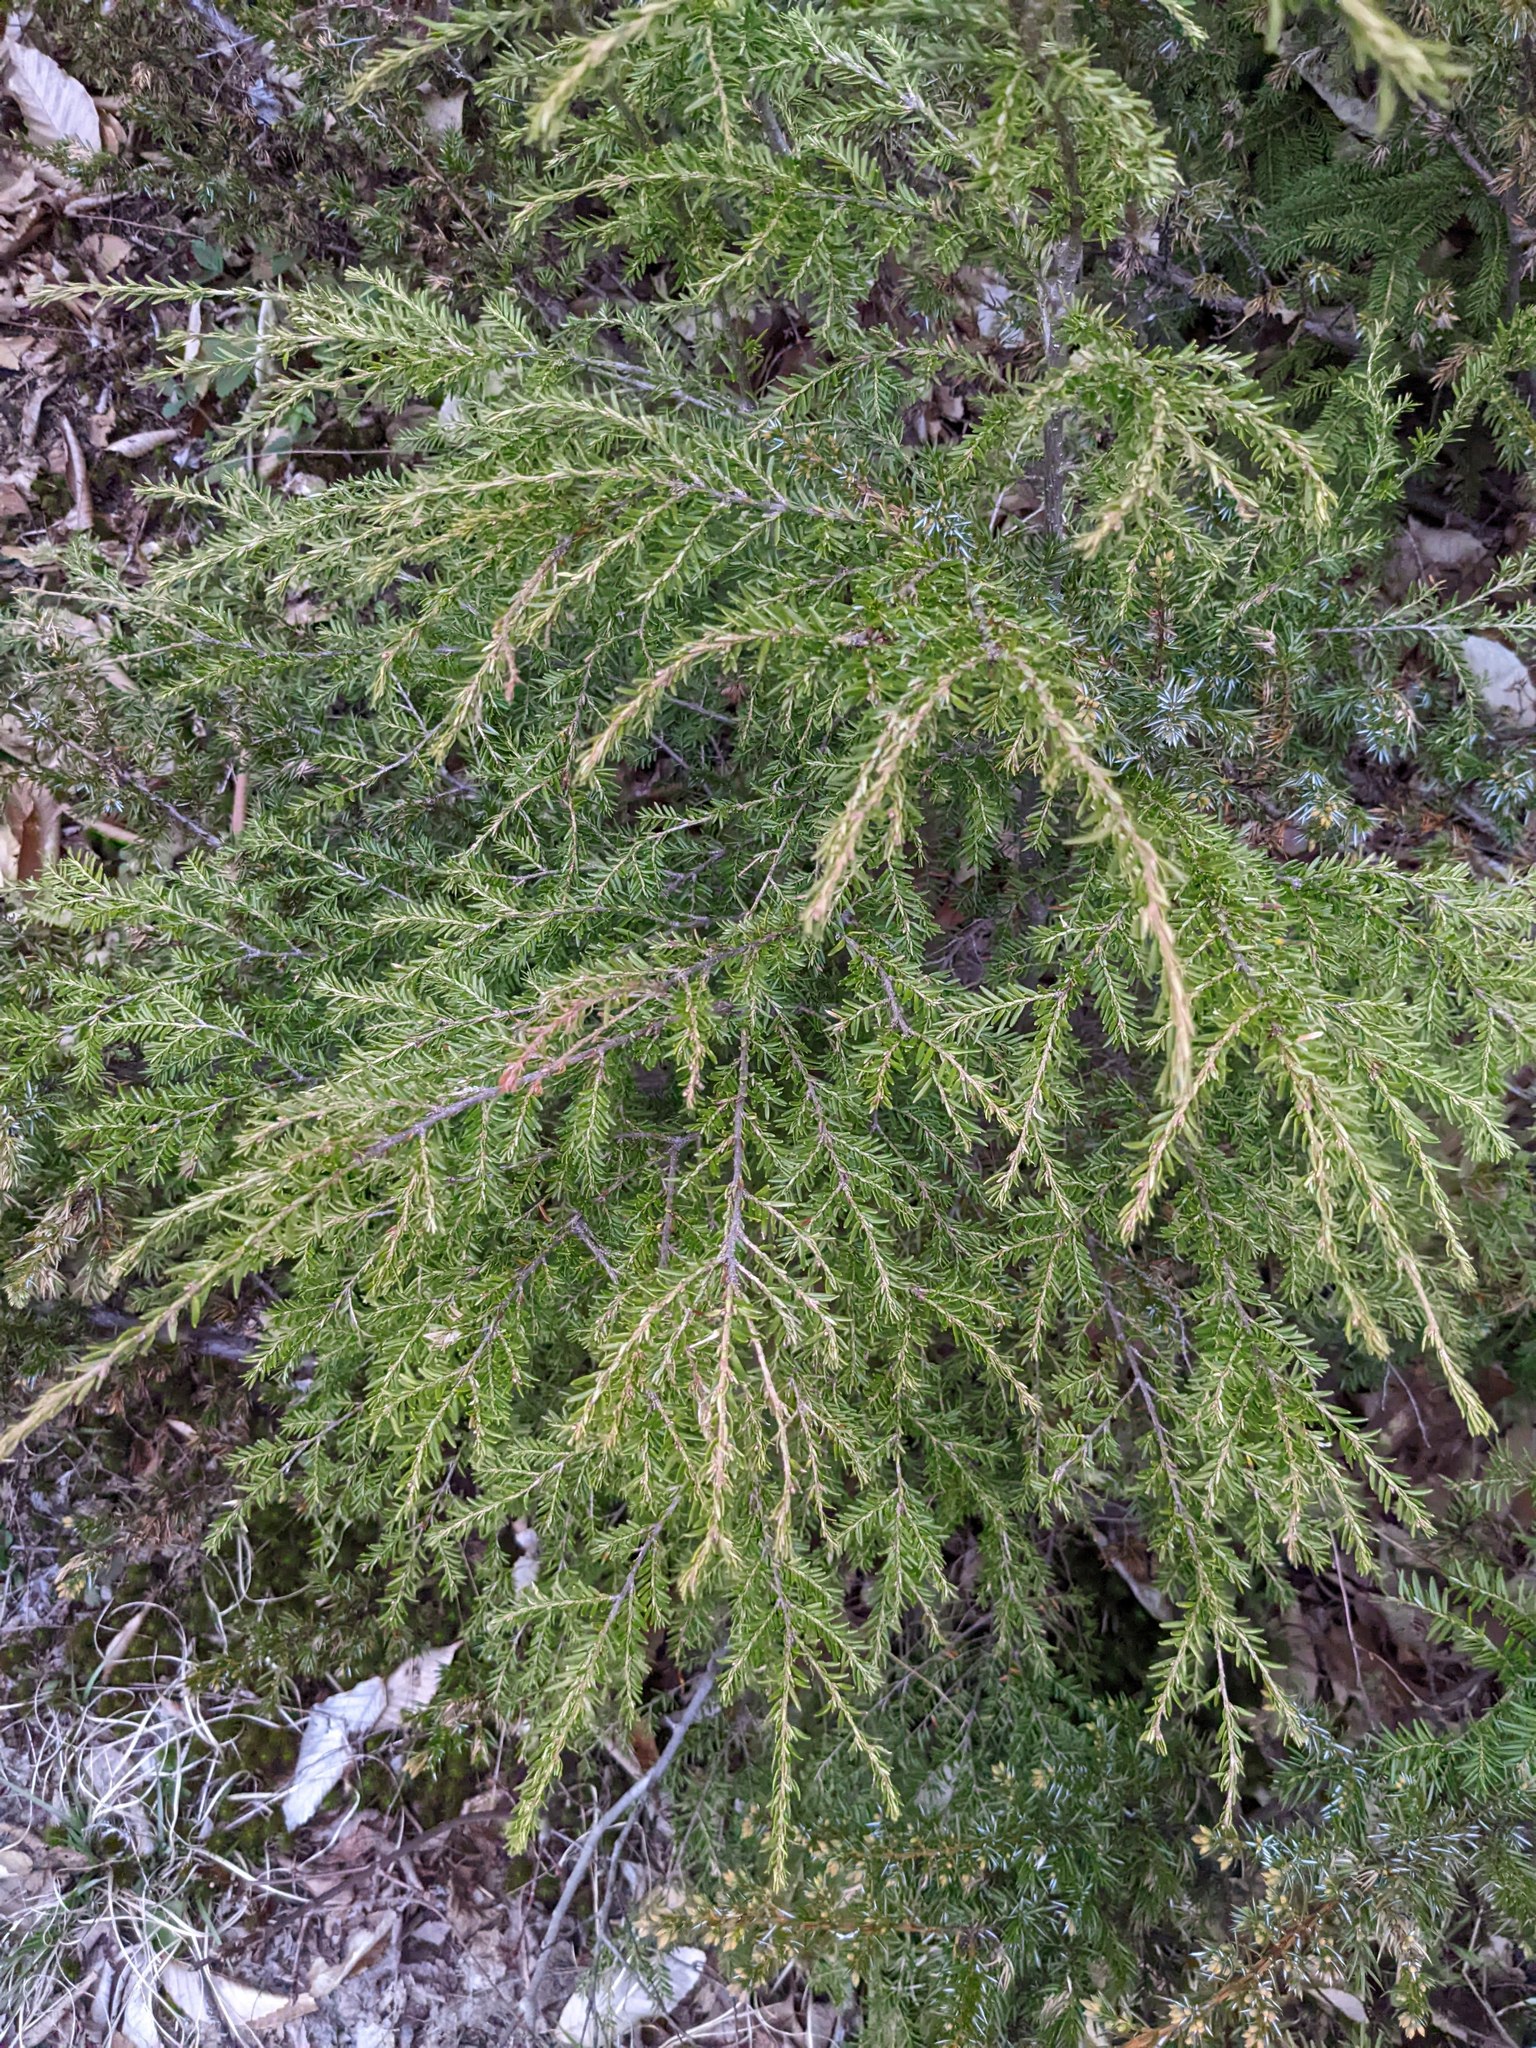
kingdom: Plantae
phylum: Tracheophyta
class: Pinopsida
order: Pinales
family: Pinaceae
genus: Tsuga
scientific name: Tsuga canadensis
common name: Eastern hemlock
